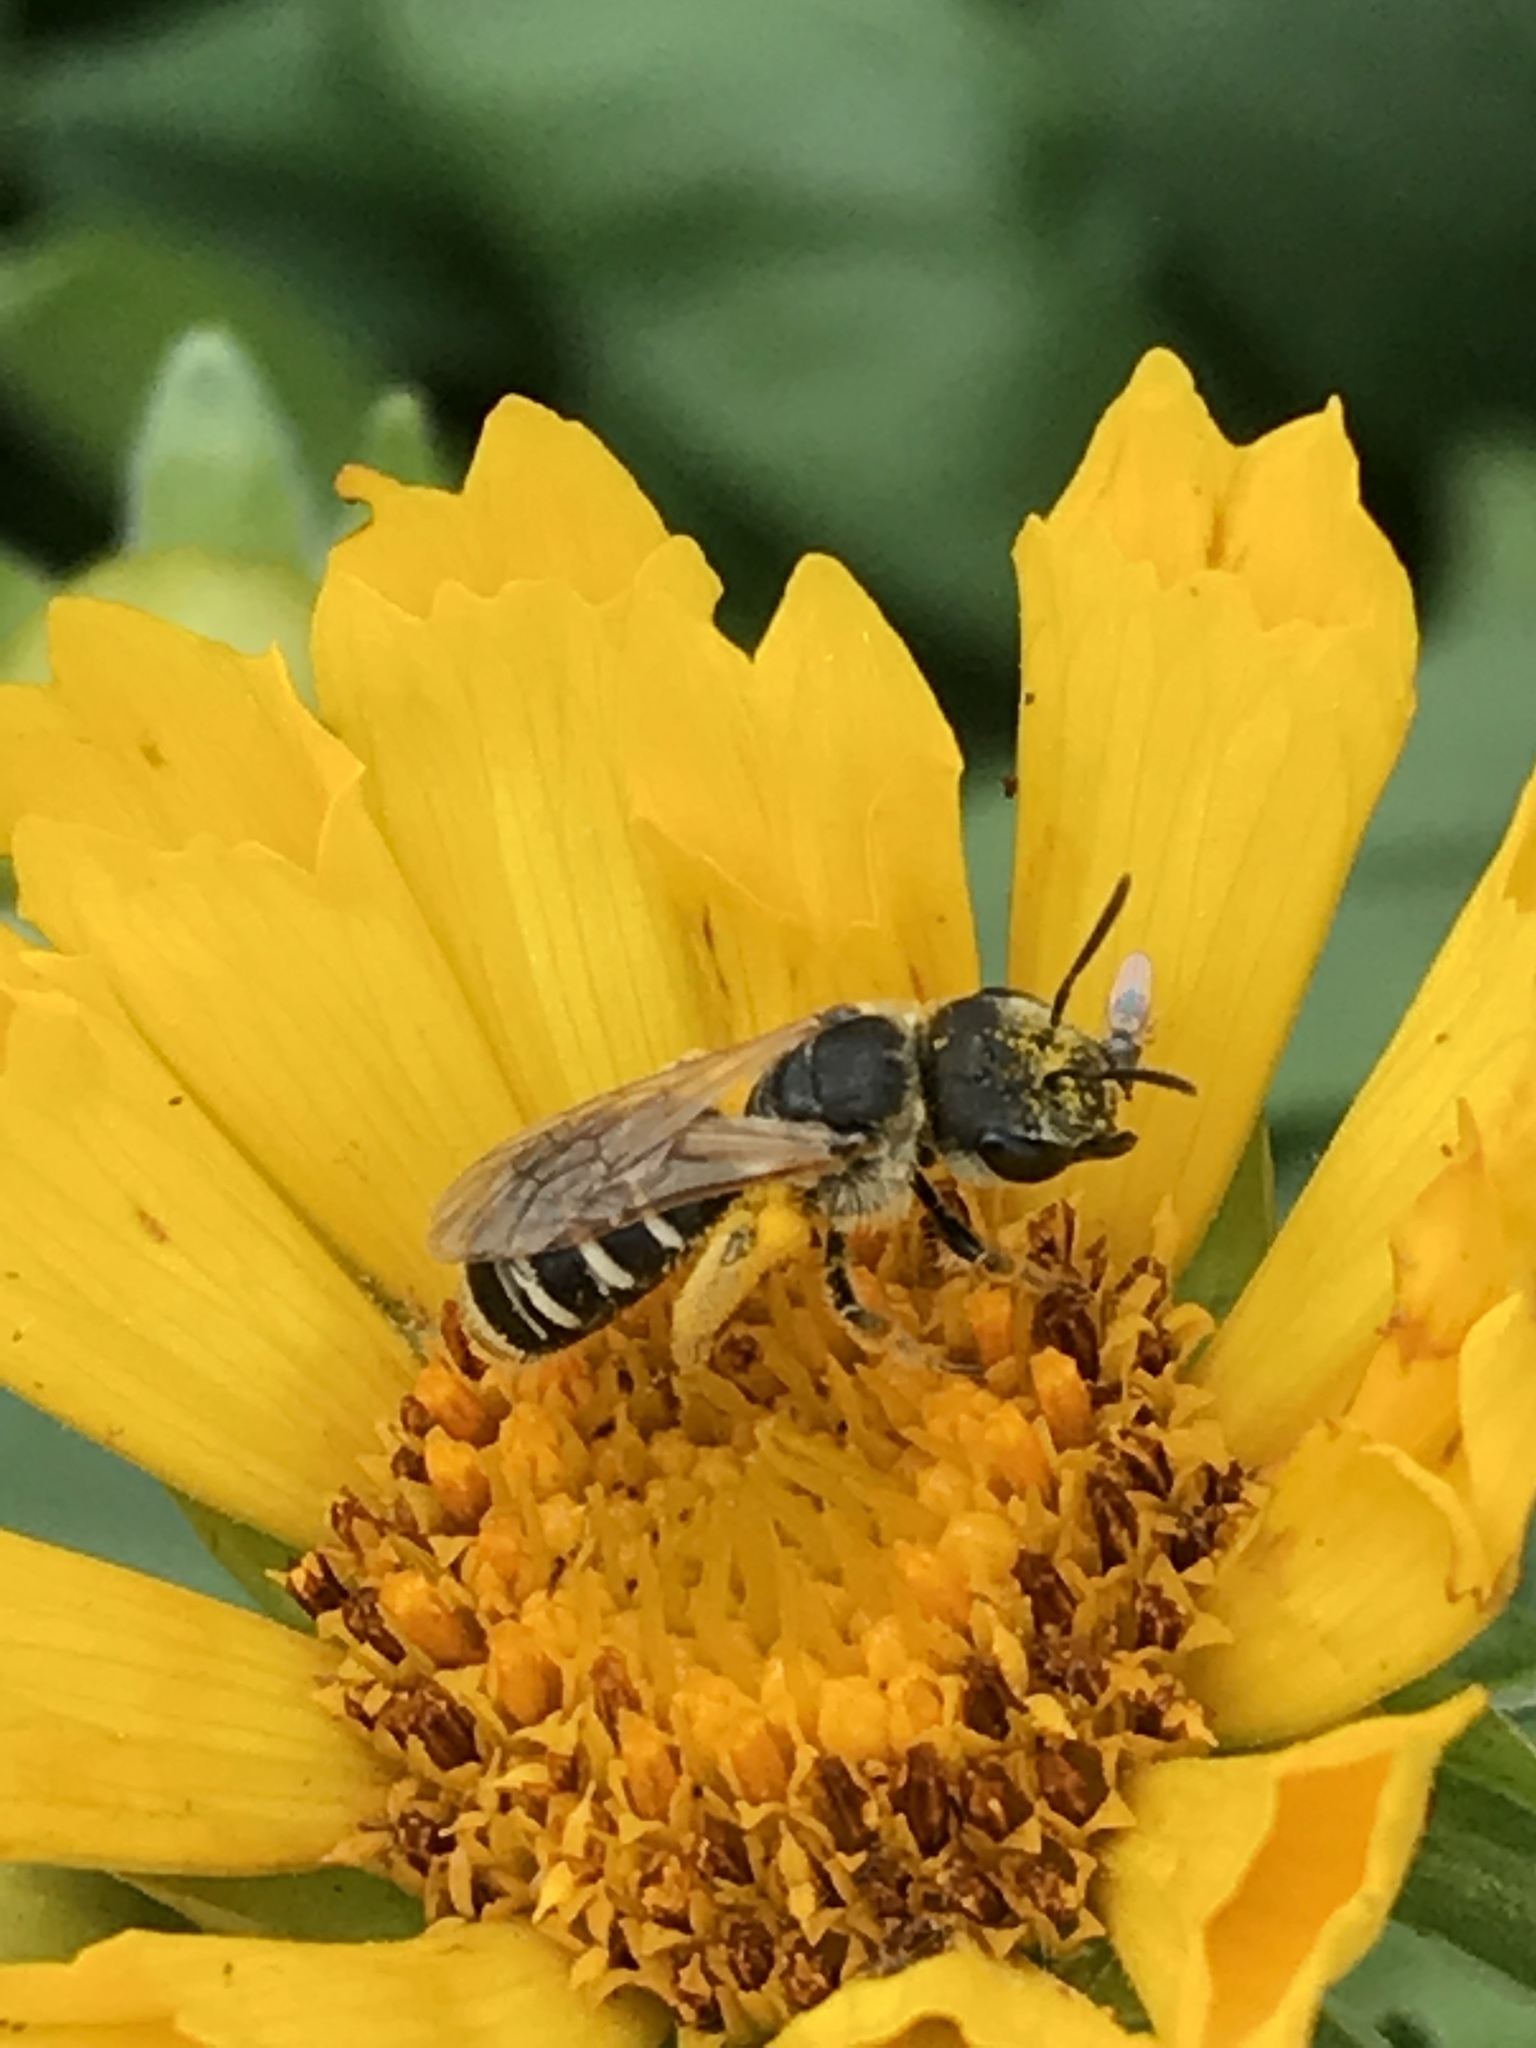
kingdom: Animalia
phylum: Arthropoda
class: Insecta
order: Hymenoptera
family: Halictidae
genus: Halictus
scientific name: Halictus ligatus
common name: Ligated furrow bee
